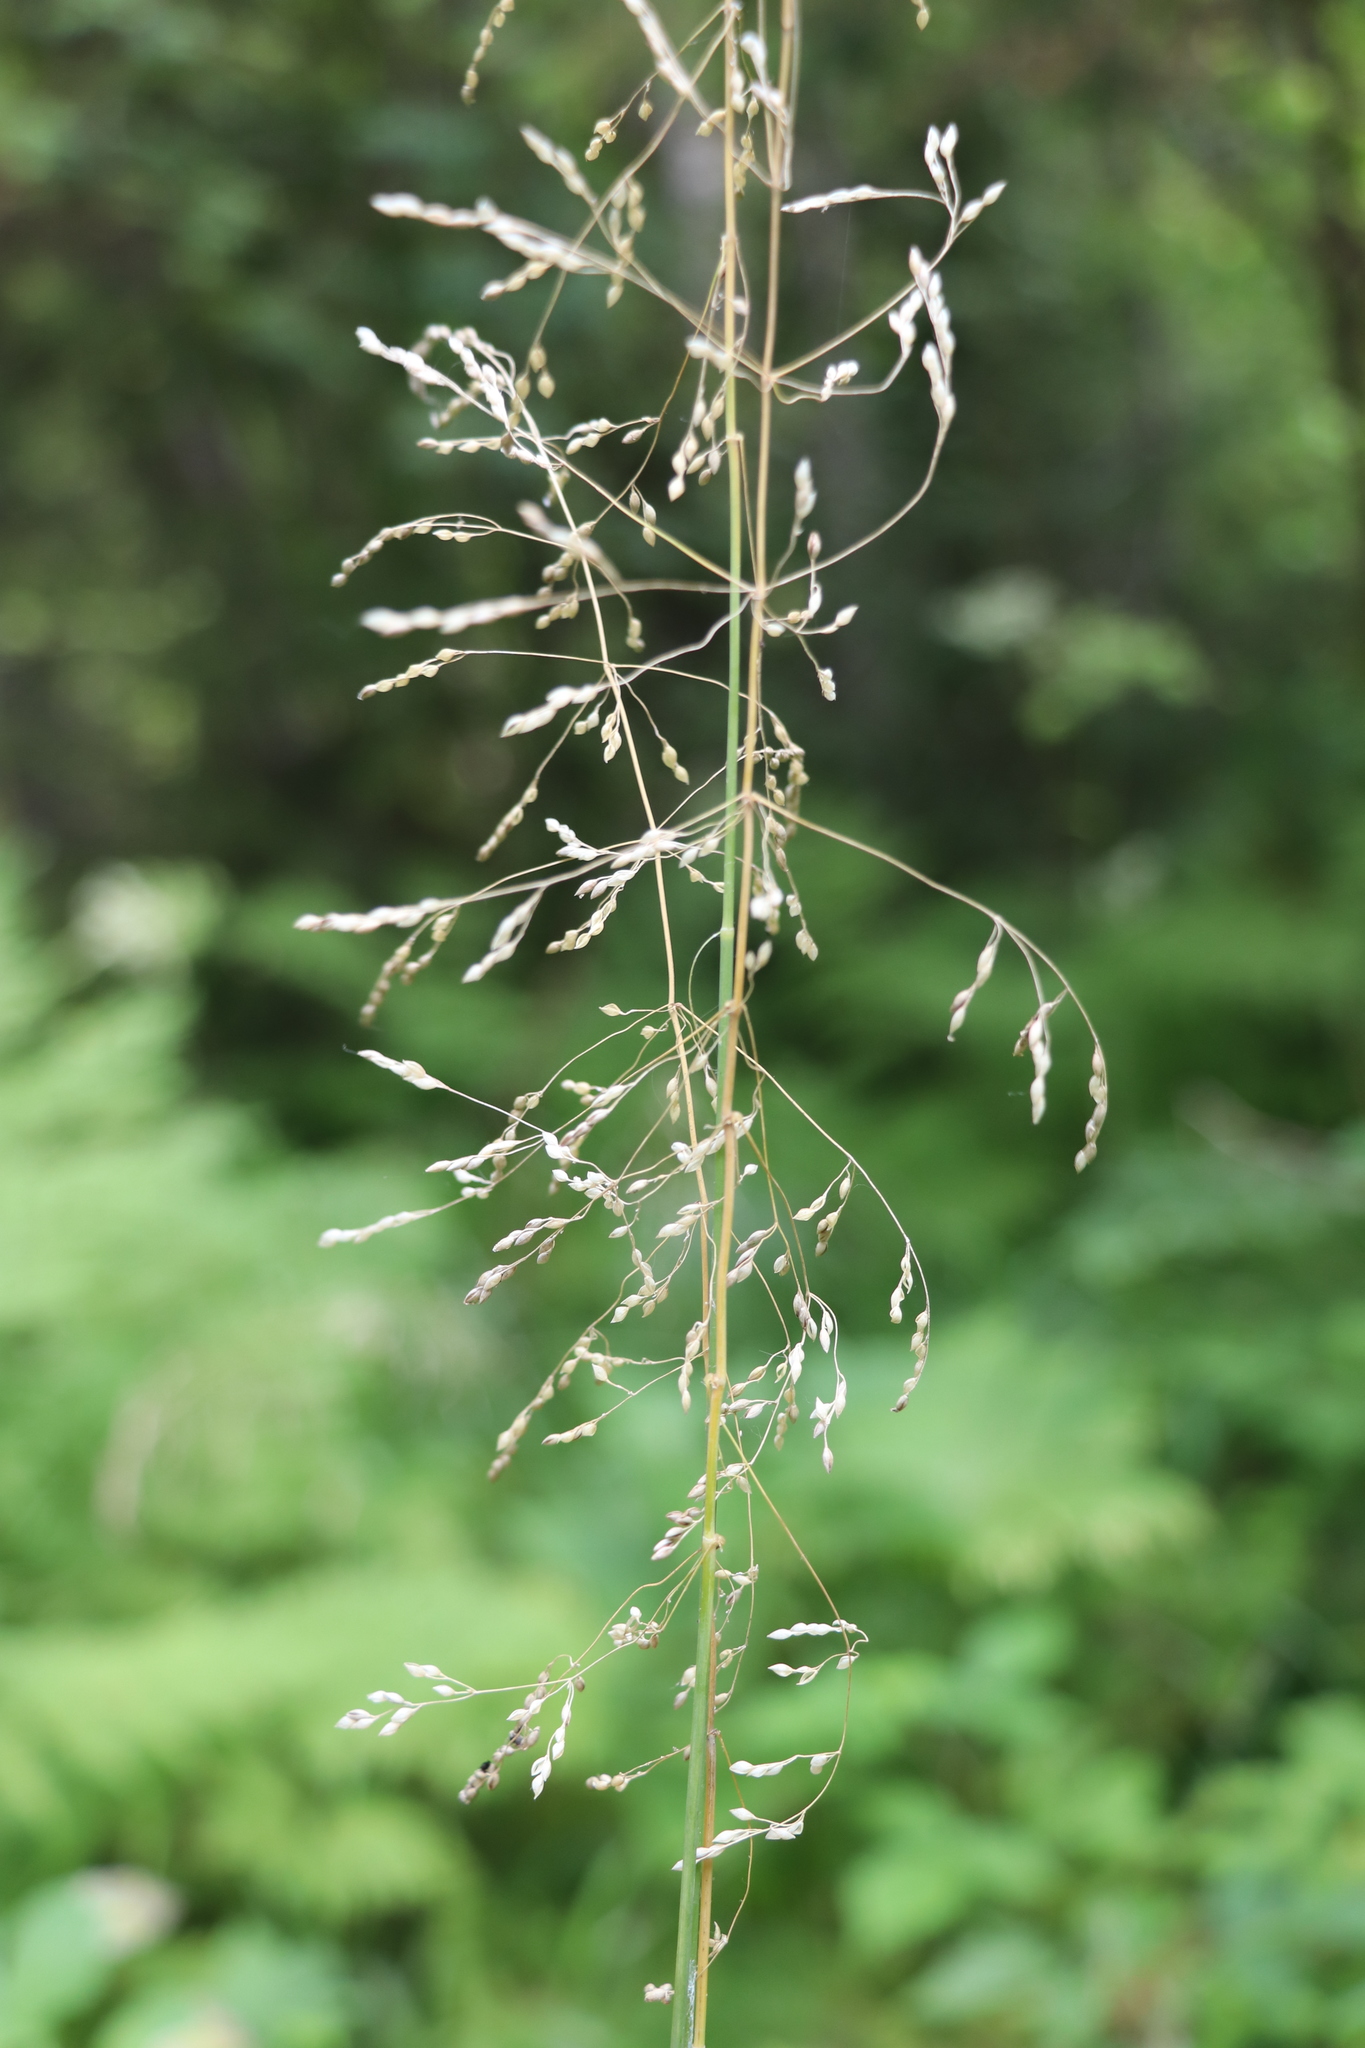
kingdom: Plantae
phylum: Tracheophyta
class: Liliopsida
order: Poales
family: Poaceae
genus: Milium
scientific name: Milium effusum
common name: Wood millet
